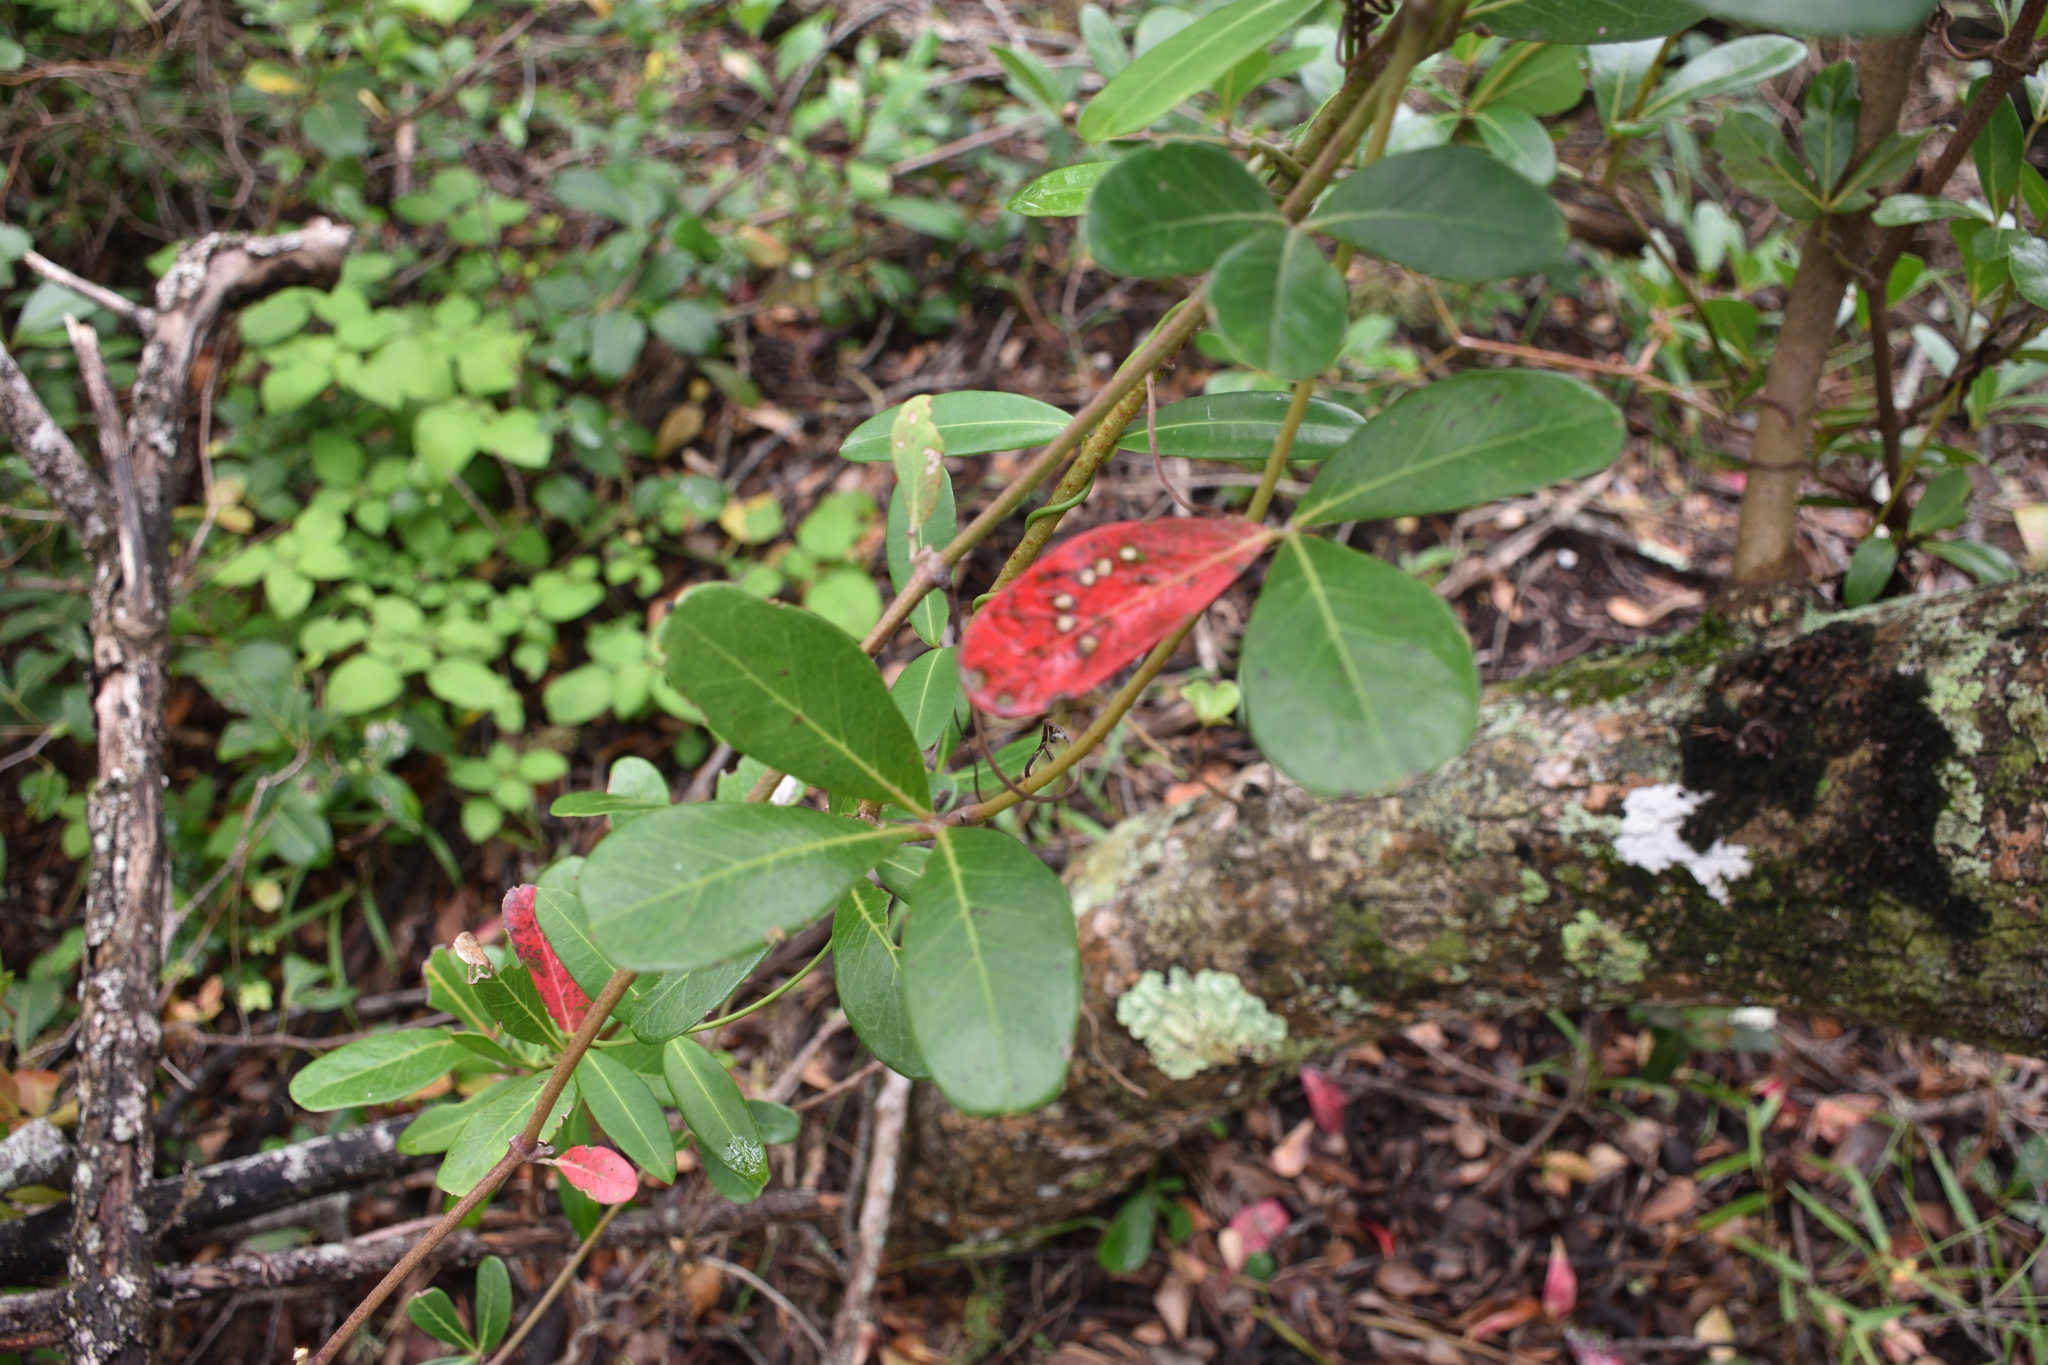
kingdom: Plantae
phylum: Tracheophyta
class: Magnoliopsida
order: Vitales
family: Vitaceae
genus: Rhoicissus
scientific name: Rhoicissus digitata
